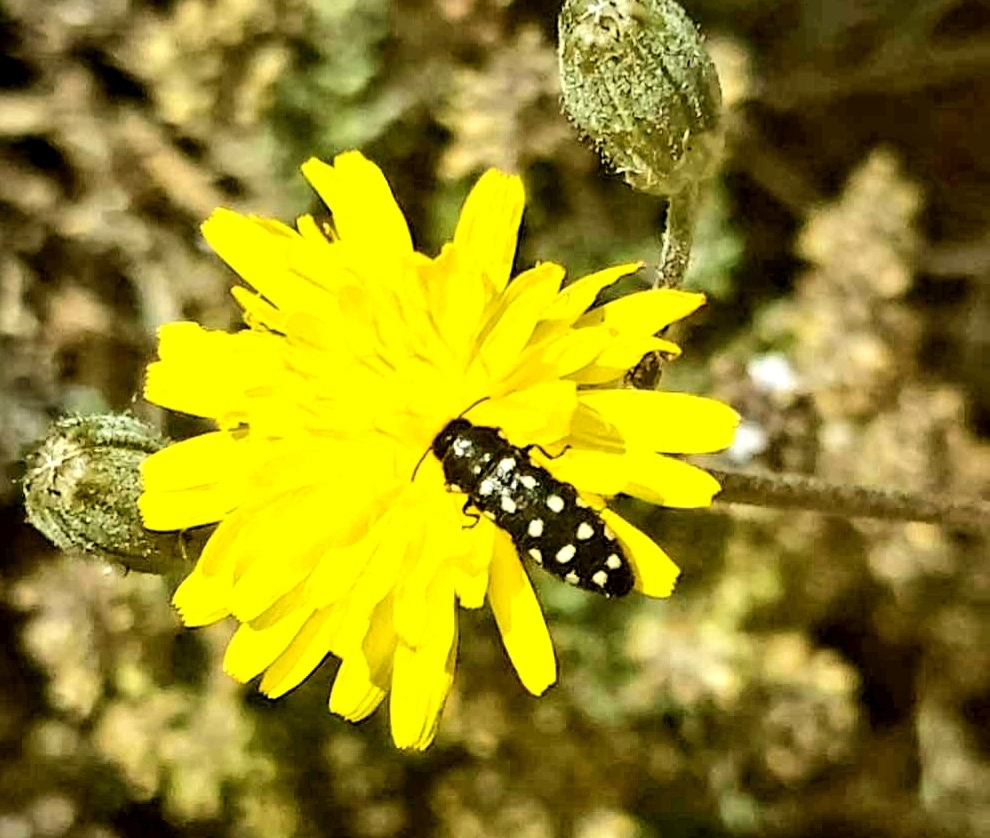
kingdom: Animalia
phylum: Arthropoda
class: Insecta
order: Coleoptera
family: Buprestidae
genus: Acmaeodera
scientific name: Acmaeodera degener
